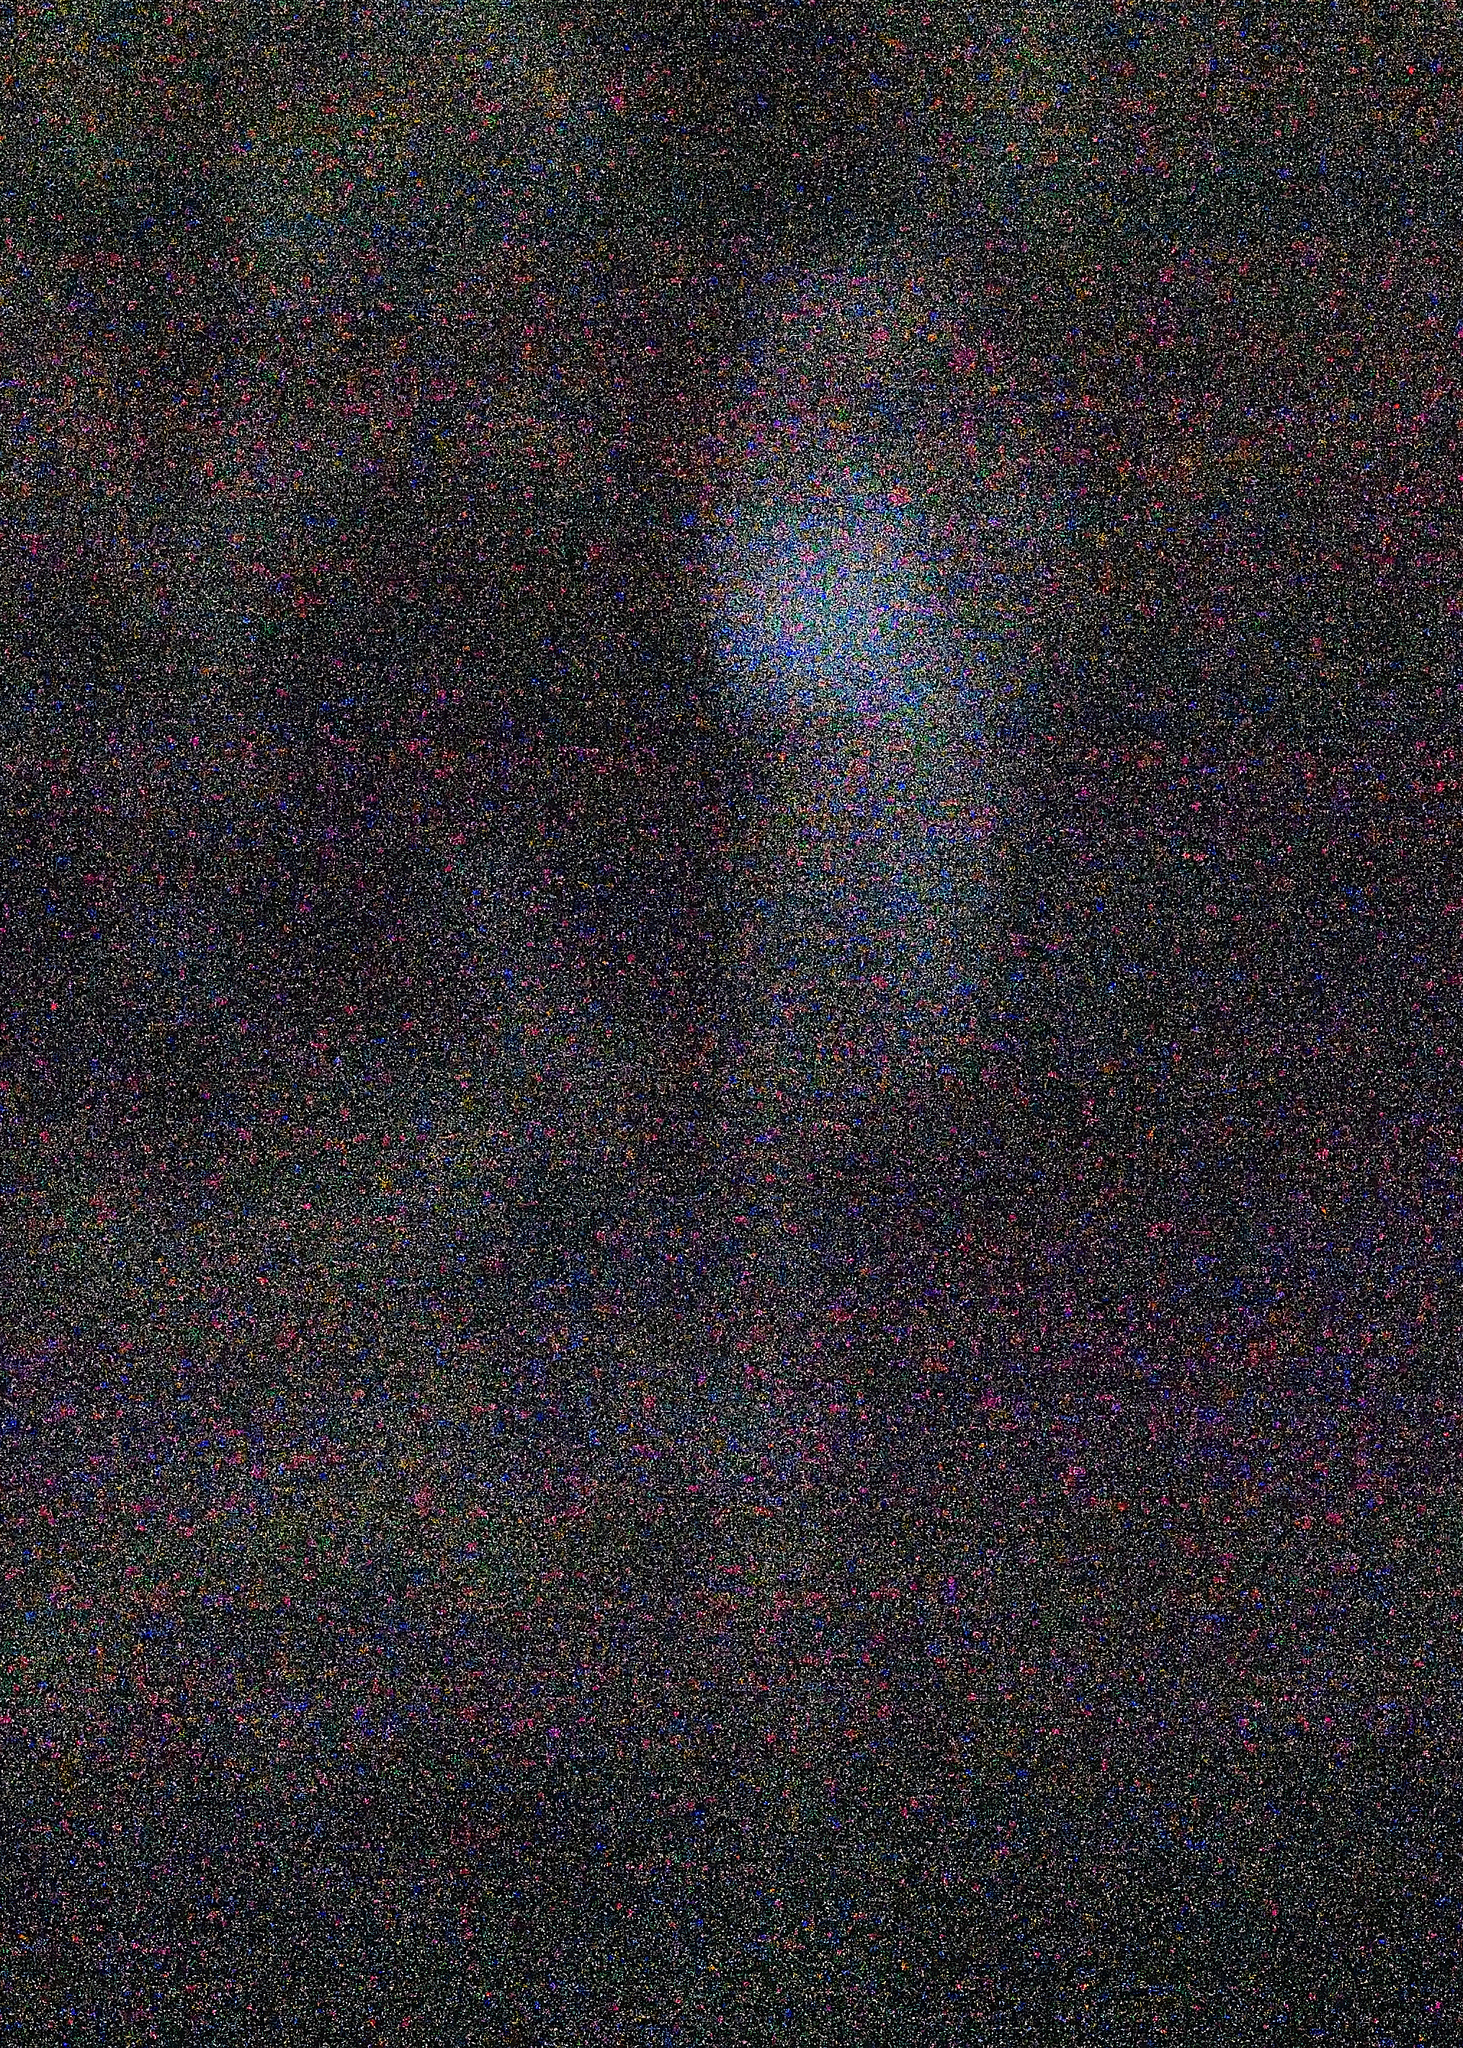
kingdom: Animalia
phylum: Chordata
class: Aves
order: Nyctibiiformes
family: Nyctibiidae
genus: Nyctibius
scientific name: Nyctibius griseus
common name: Common potoo
